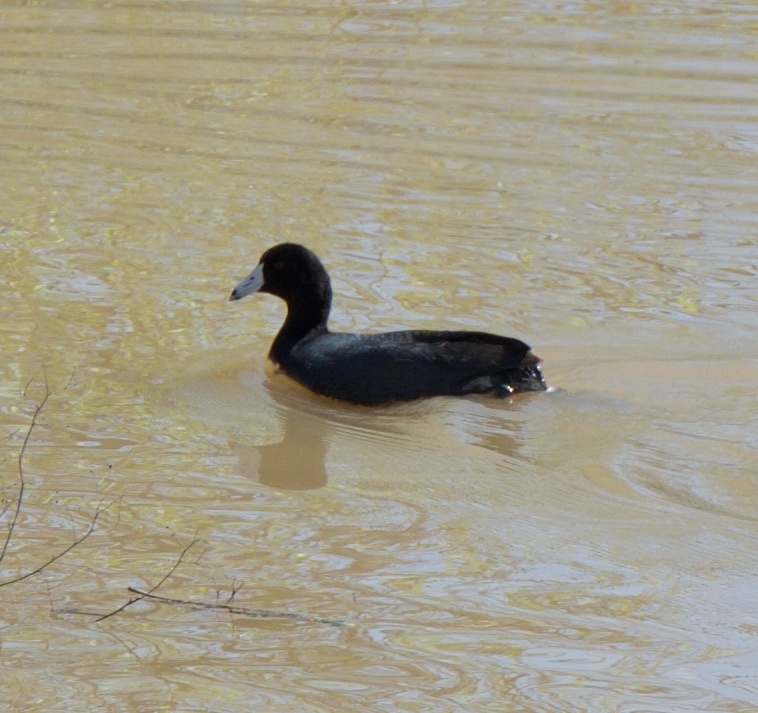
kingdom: Animalia
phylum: Chordata
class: Aves
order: Gruiformes
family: Rallidae
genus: Fulica
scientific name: Fulica americana
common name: American coot
